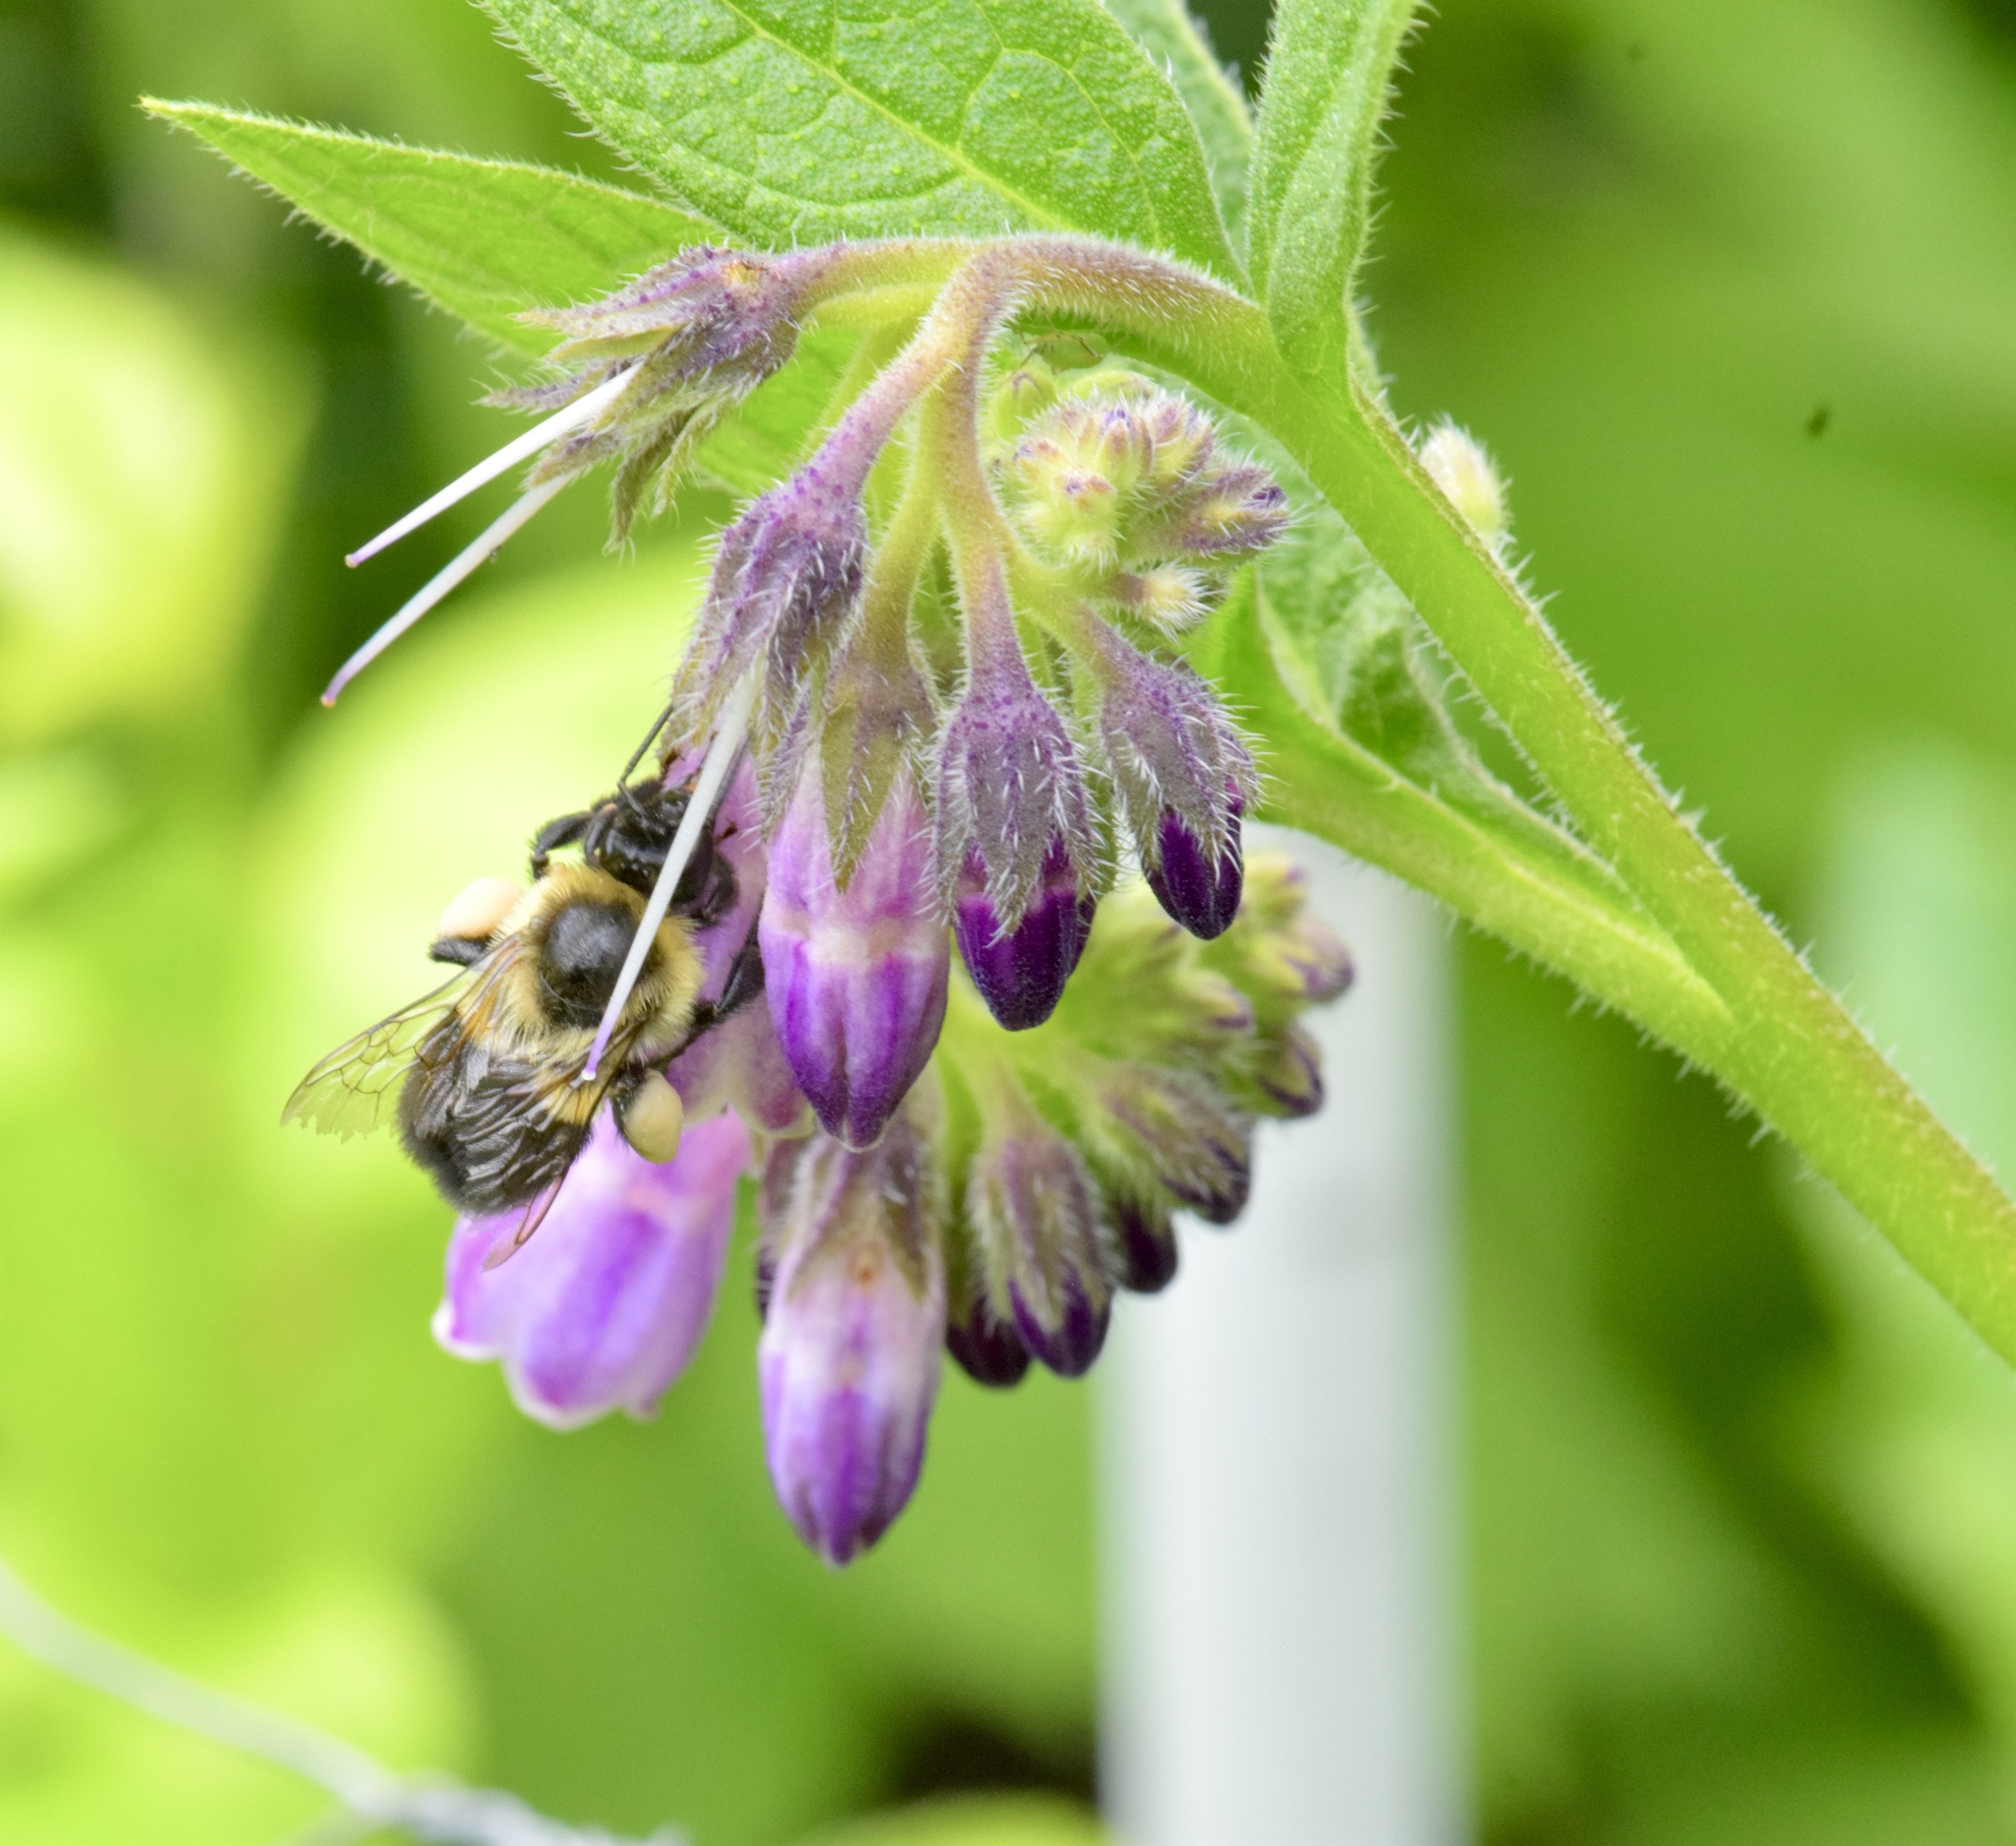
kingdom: Animalia
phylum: Arthropoda
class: Insecta
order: Hymenoptera
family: Apidae
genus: Bombus
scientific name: Bombus impatiens
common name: Common eastern bumble bee
